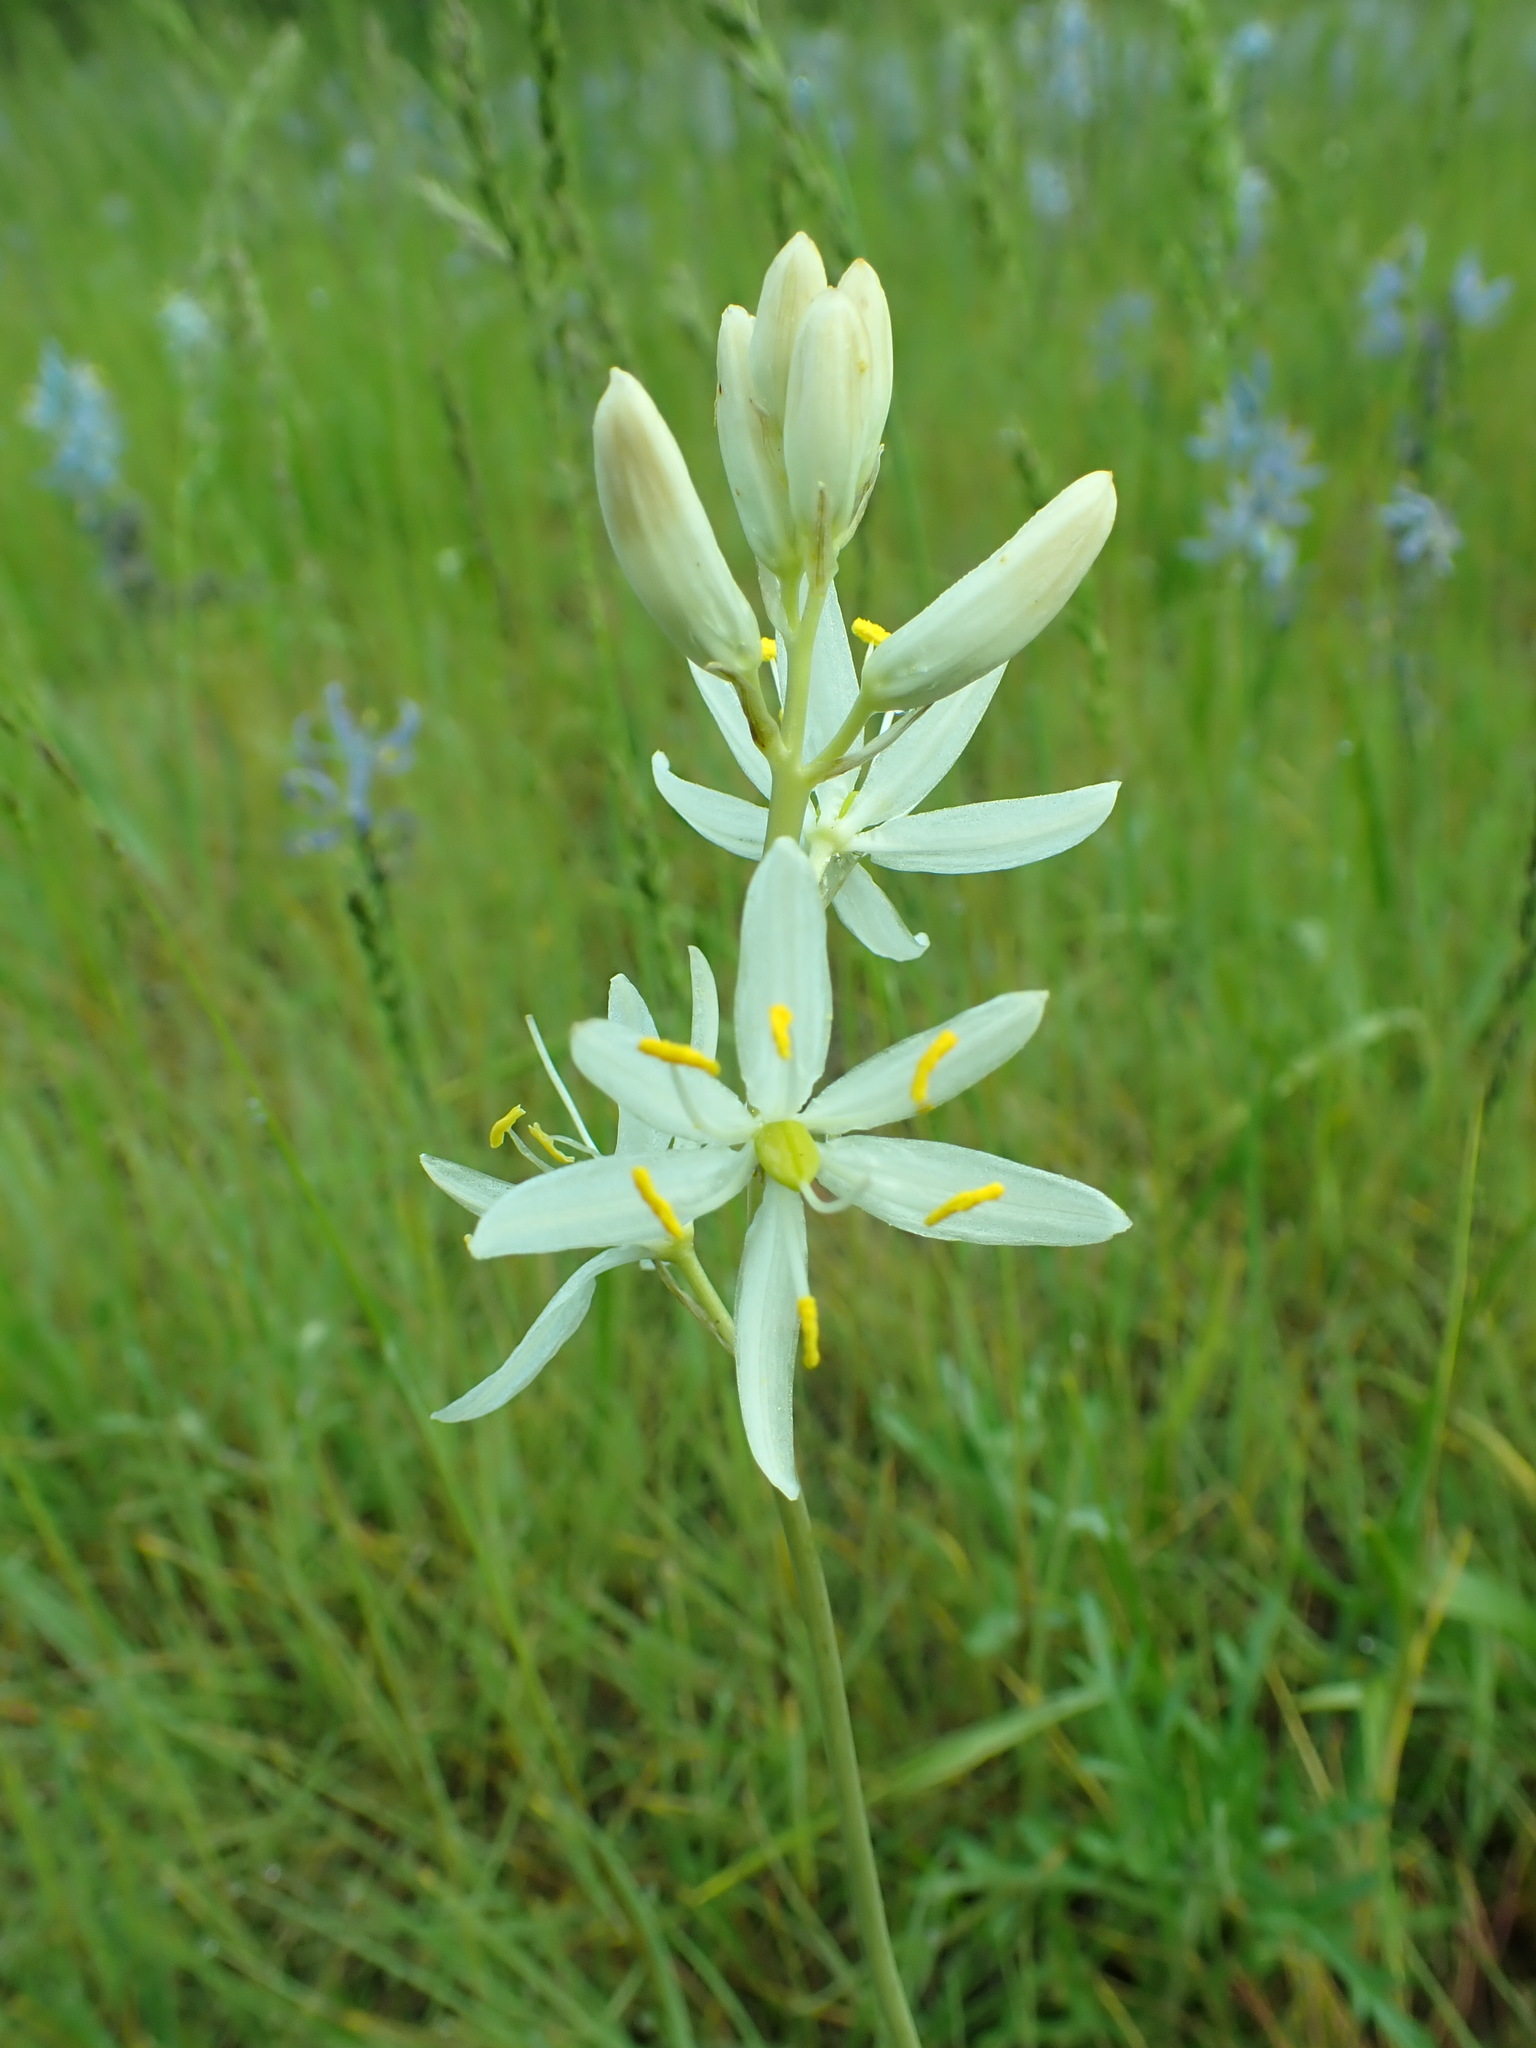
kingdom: Plantae
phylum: Tracheophyta
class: Liliopsida
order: Asparagales
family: Asparagaceae
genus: Camassia
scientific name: Camassia quamash
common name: Common camas
